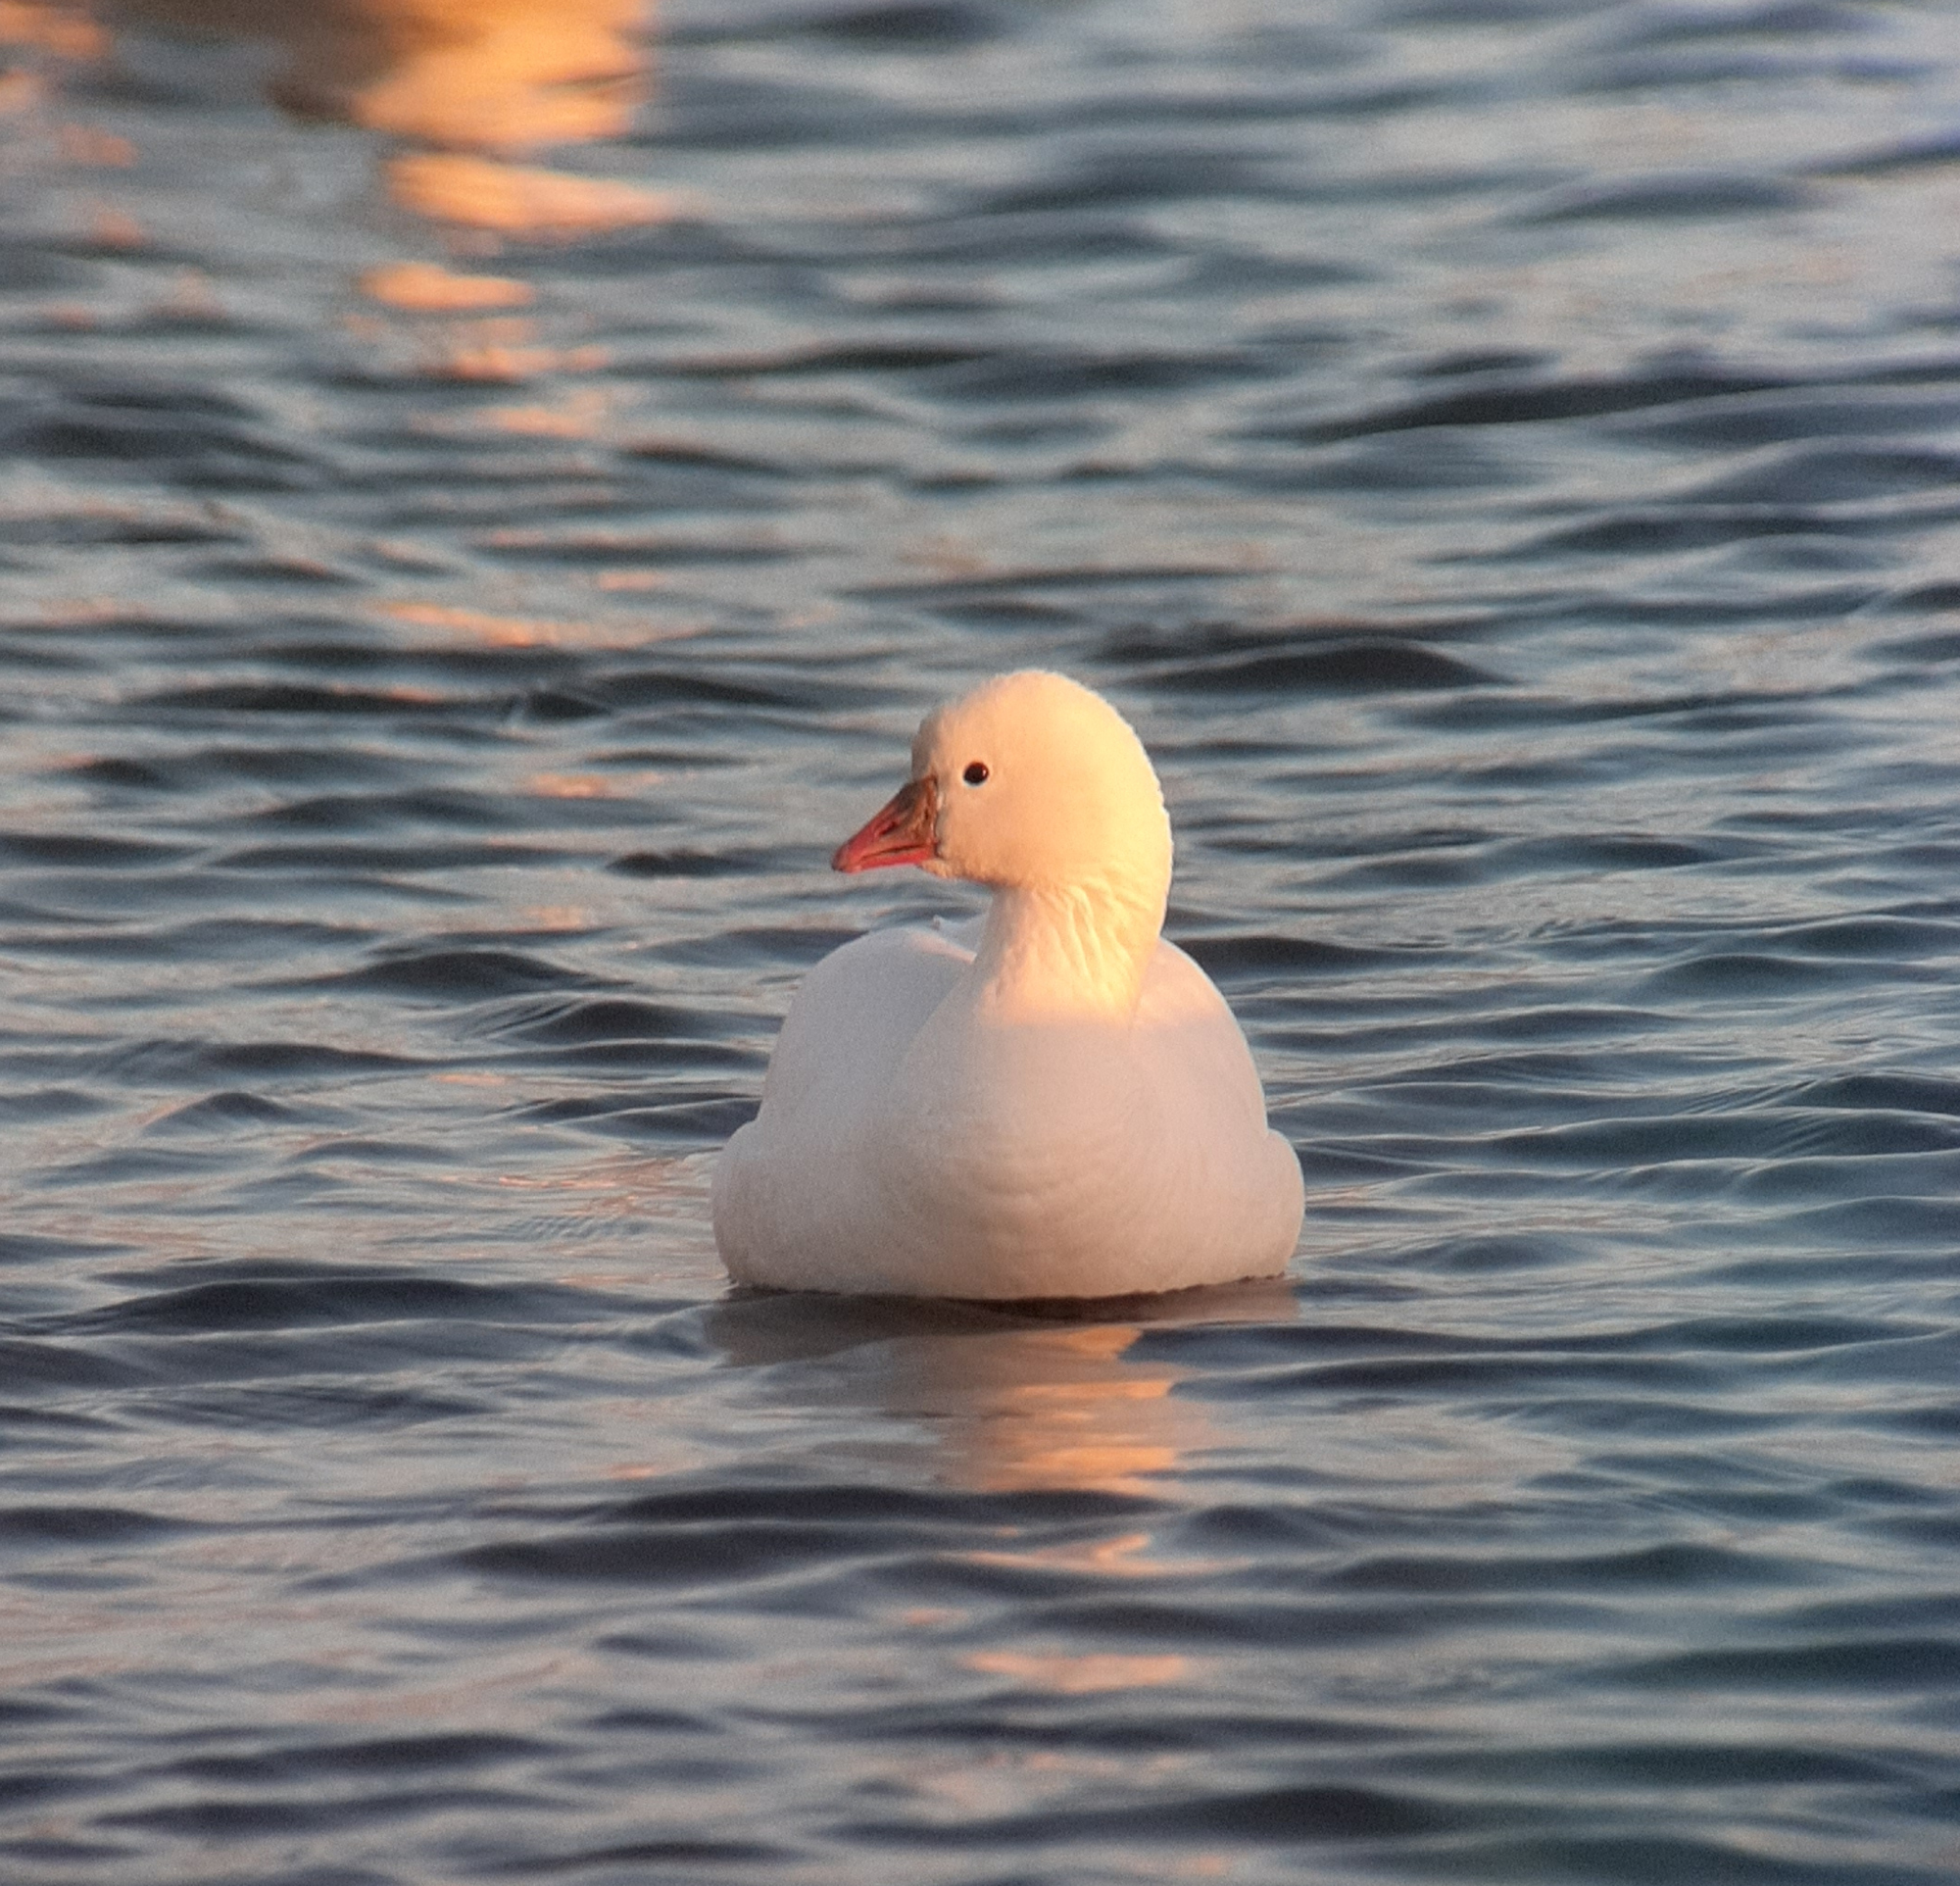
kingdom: Animalia
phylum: Chordata
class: Aves
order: Anseriformes
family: Anatidae
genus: Anser
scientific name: Anser rossii
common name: Ross's goose
